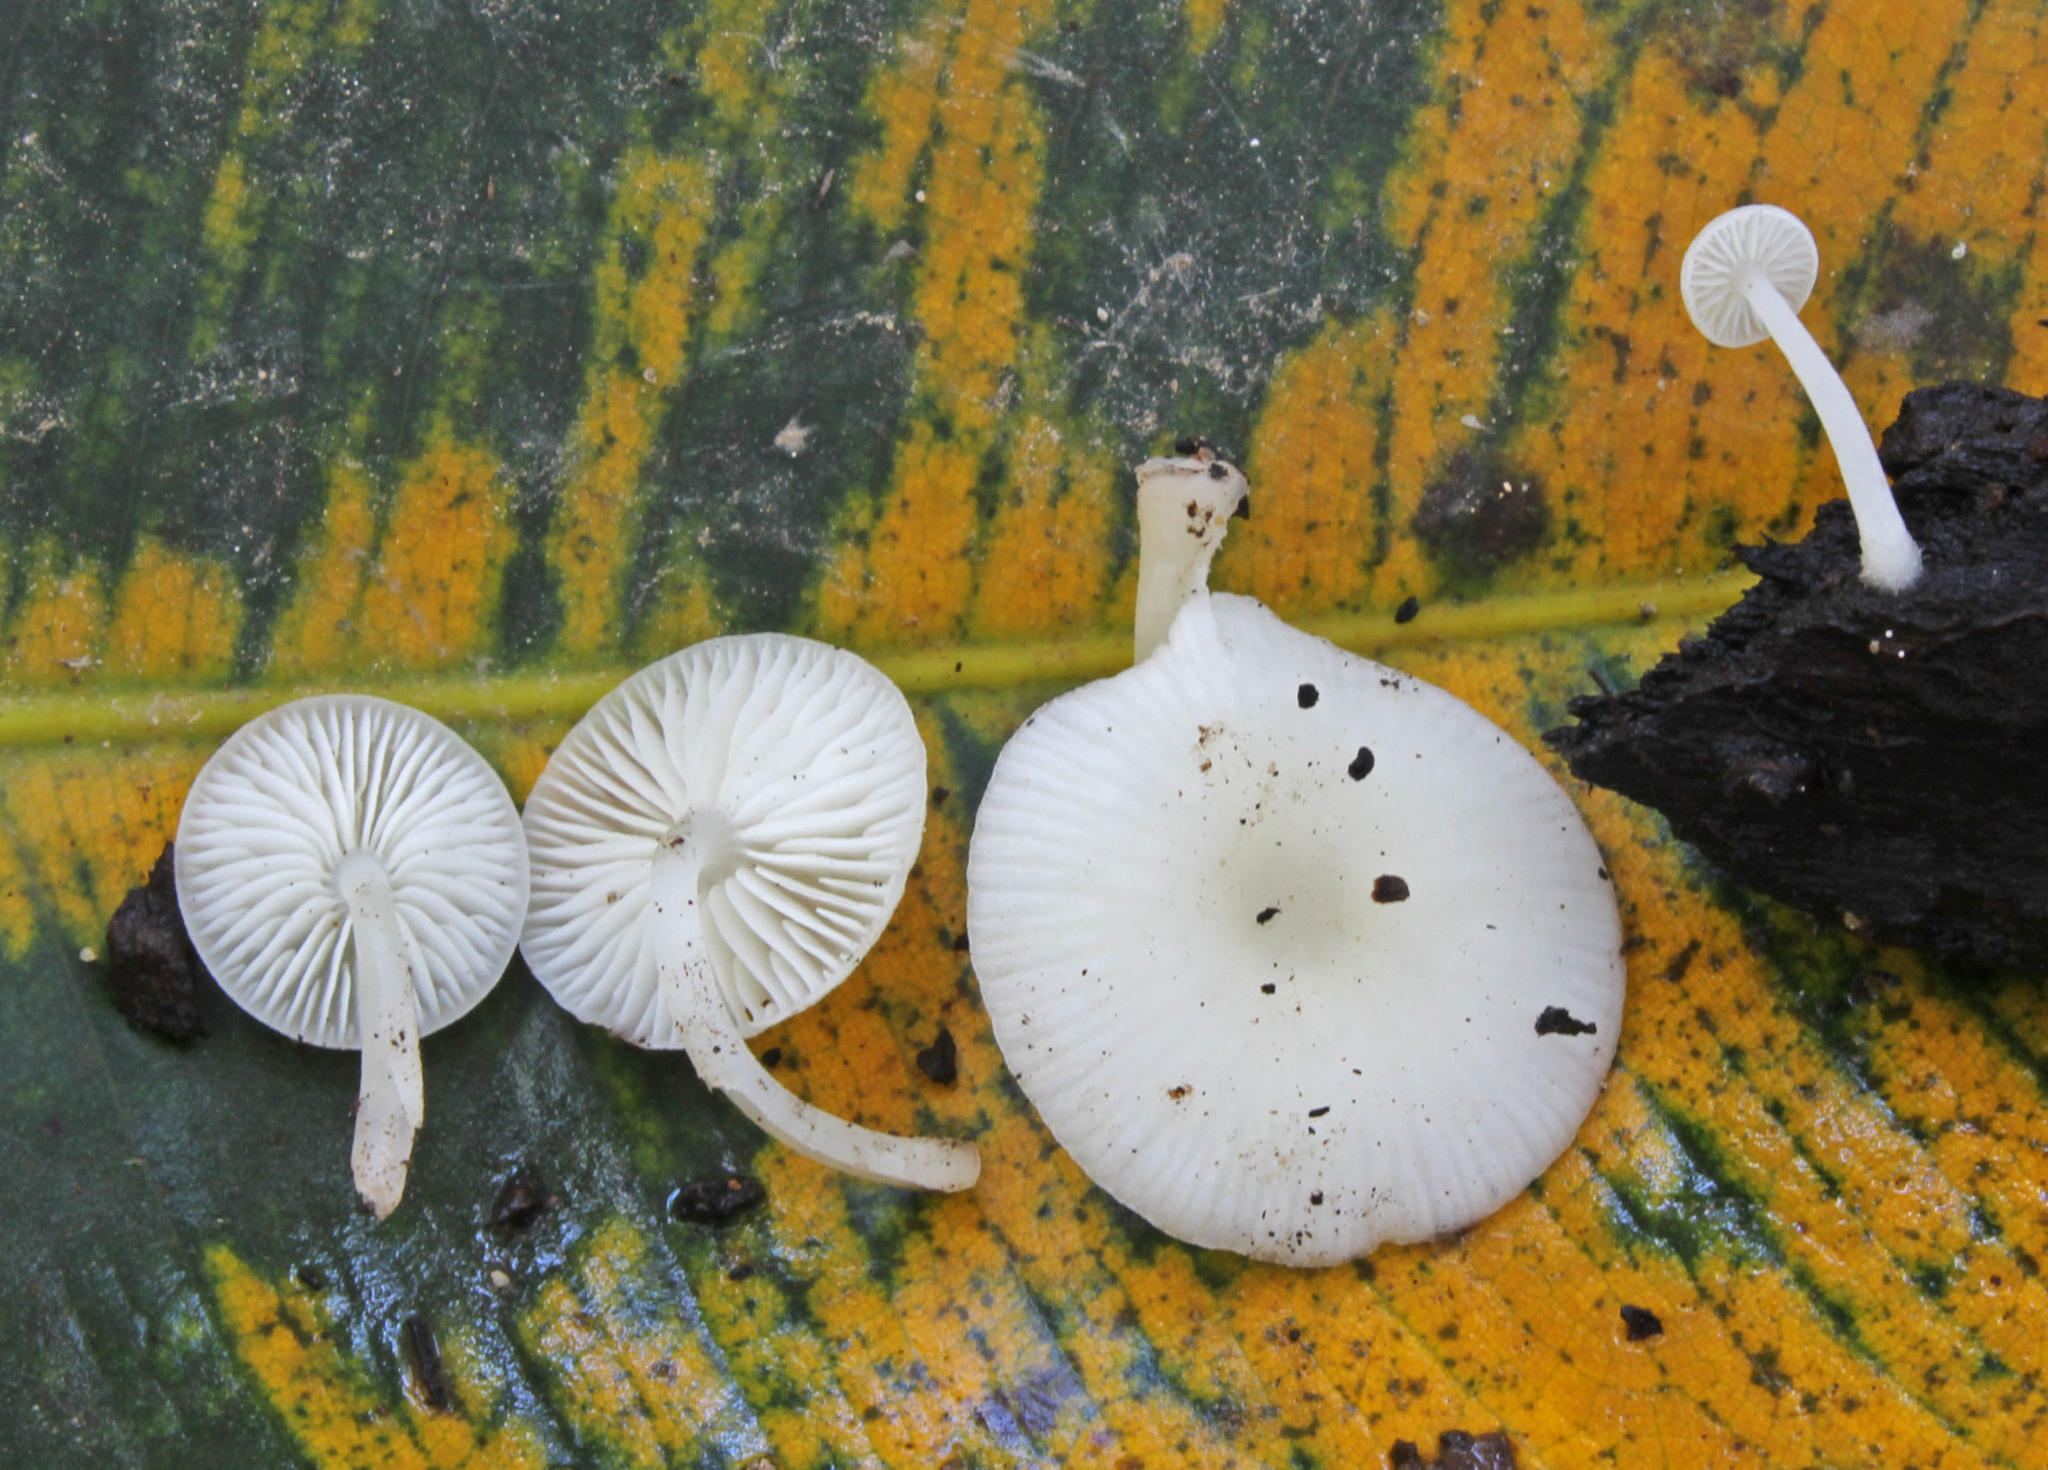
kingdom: Fungi
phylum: Basidiomycota
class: Agaricomycetes
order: Agaricales
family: Marasmiaceae
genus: Lactocollybia
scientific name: Lactocollybia epia
